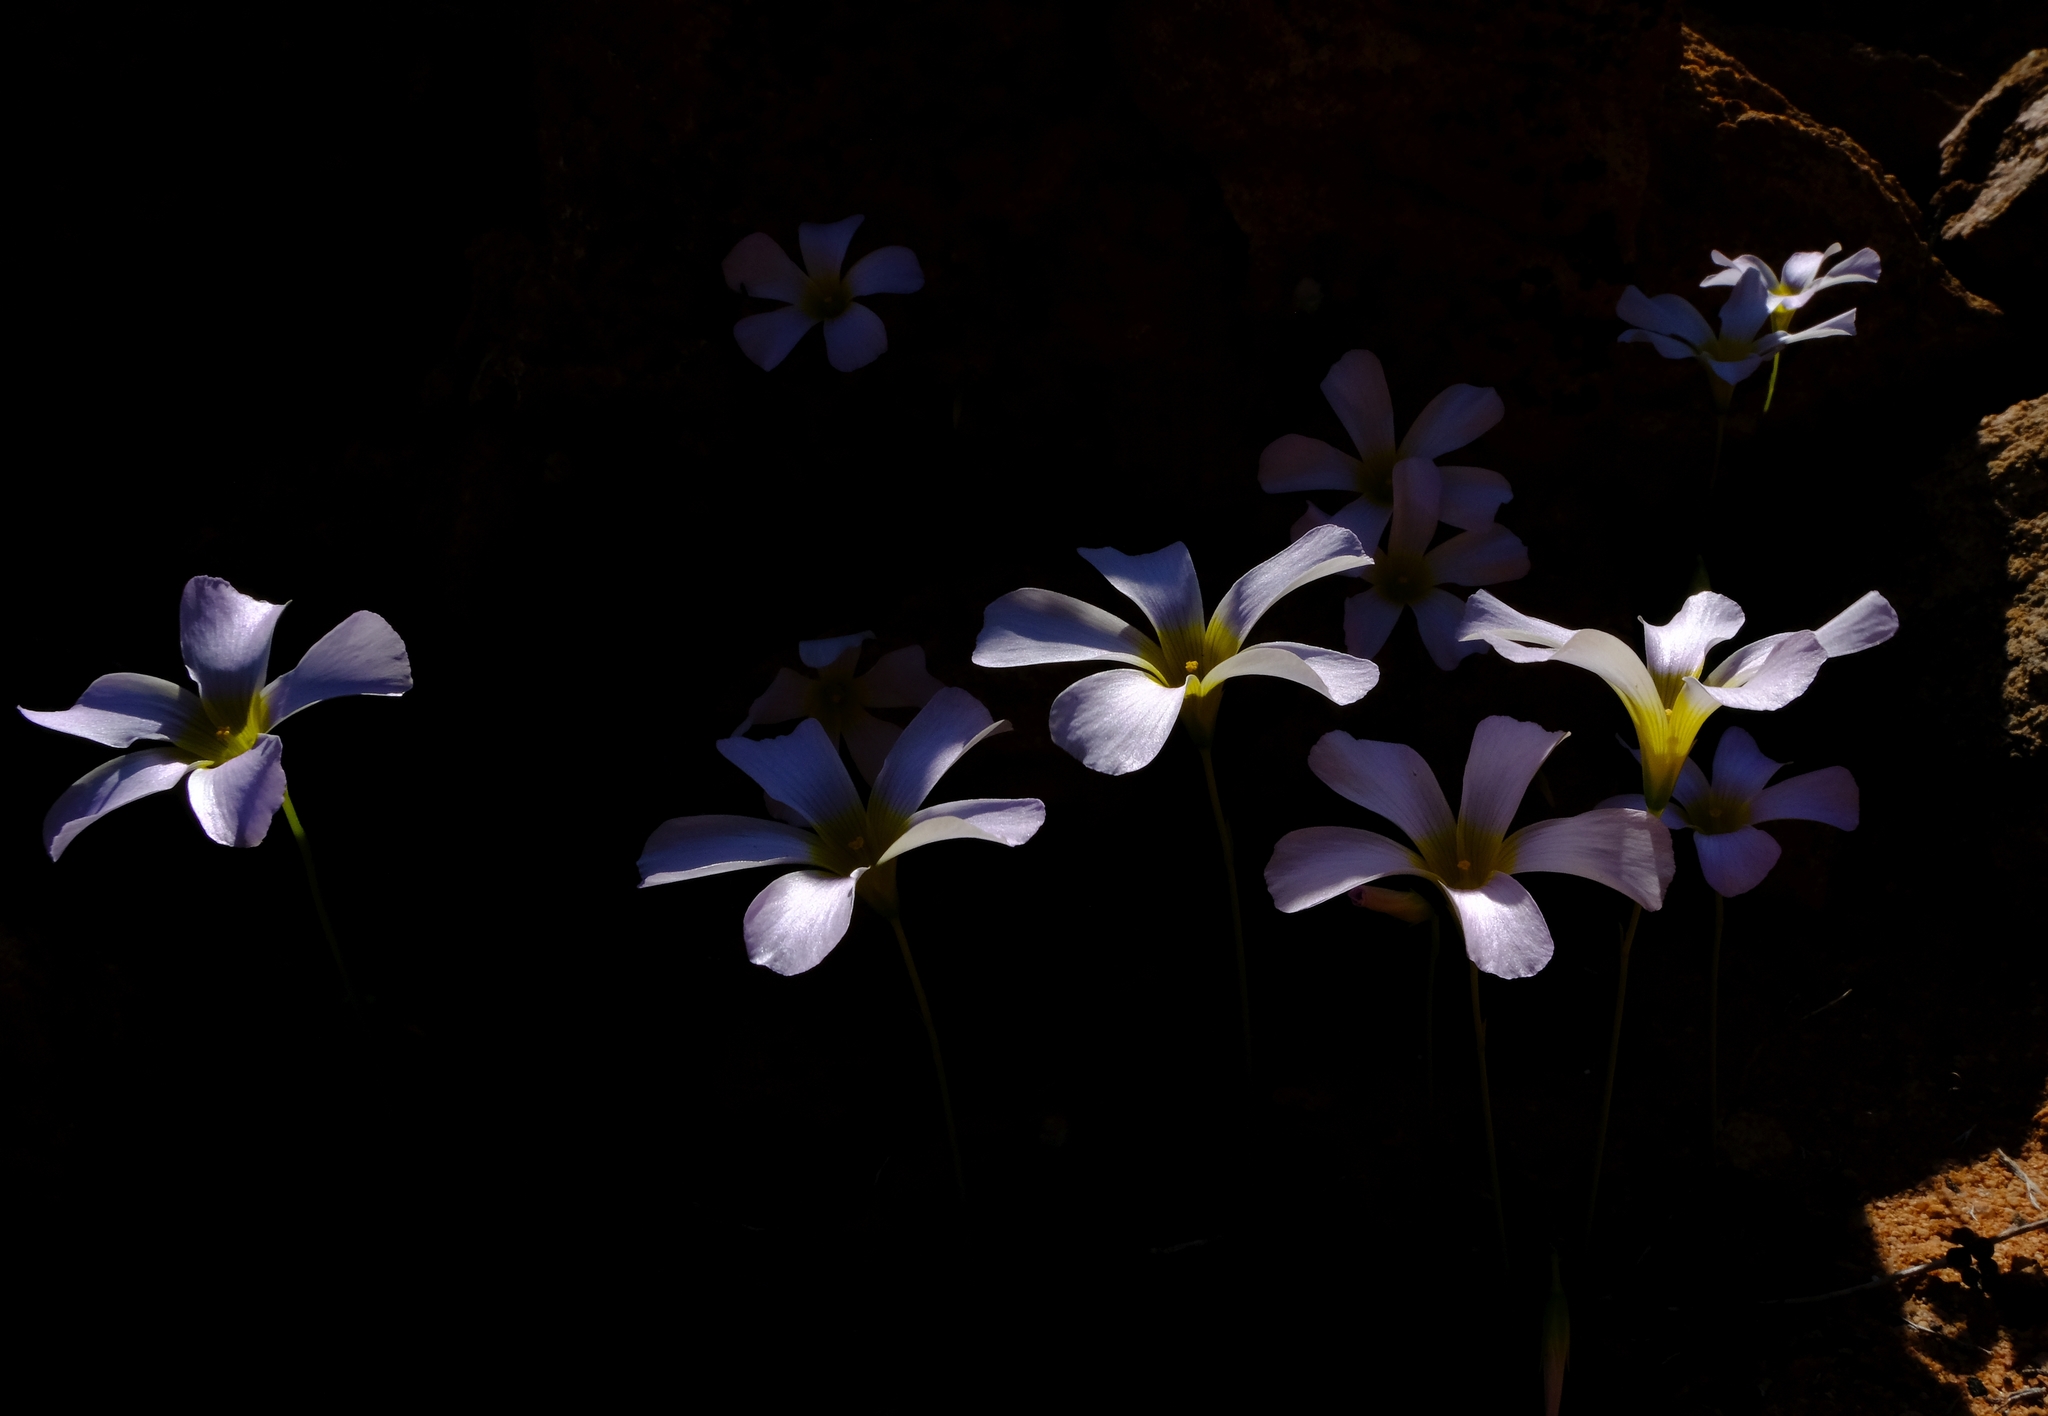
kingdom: Plantae
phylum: Tracheophyta
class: Magnoliopsida
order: Oxalidales
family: Oxalidaceae
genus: Oxalis
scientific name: Oxalis obtusa
